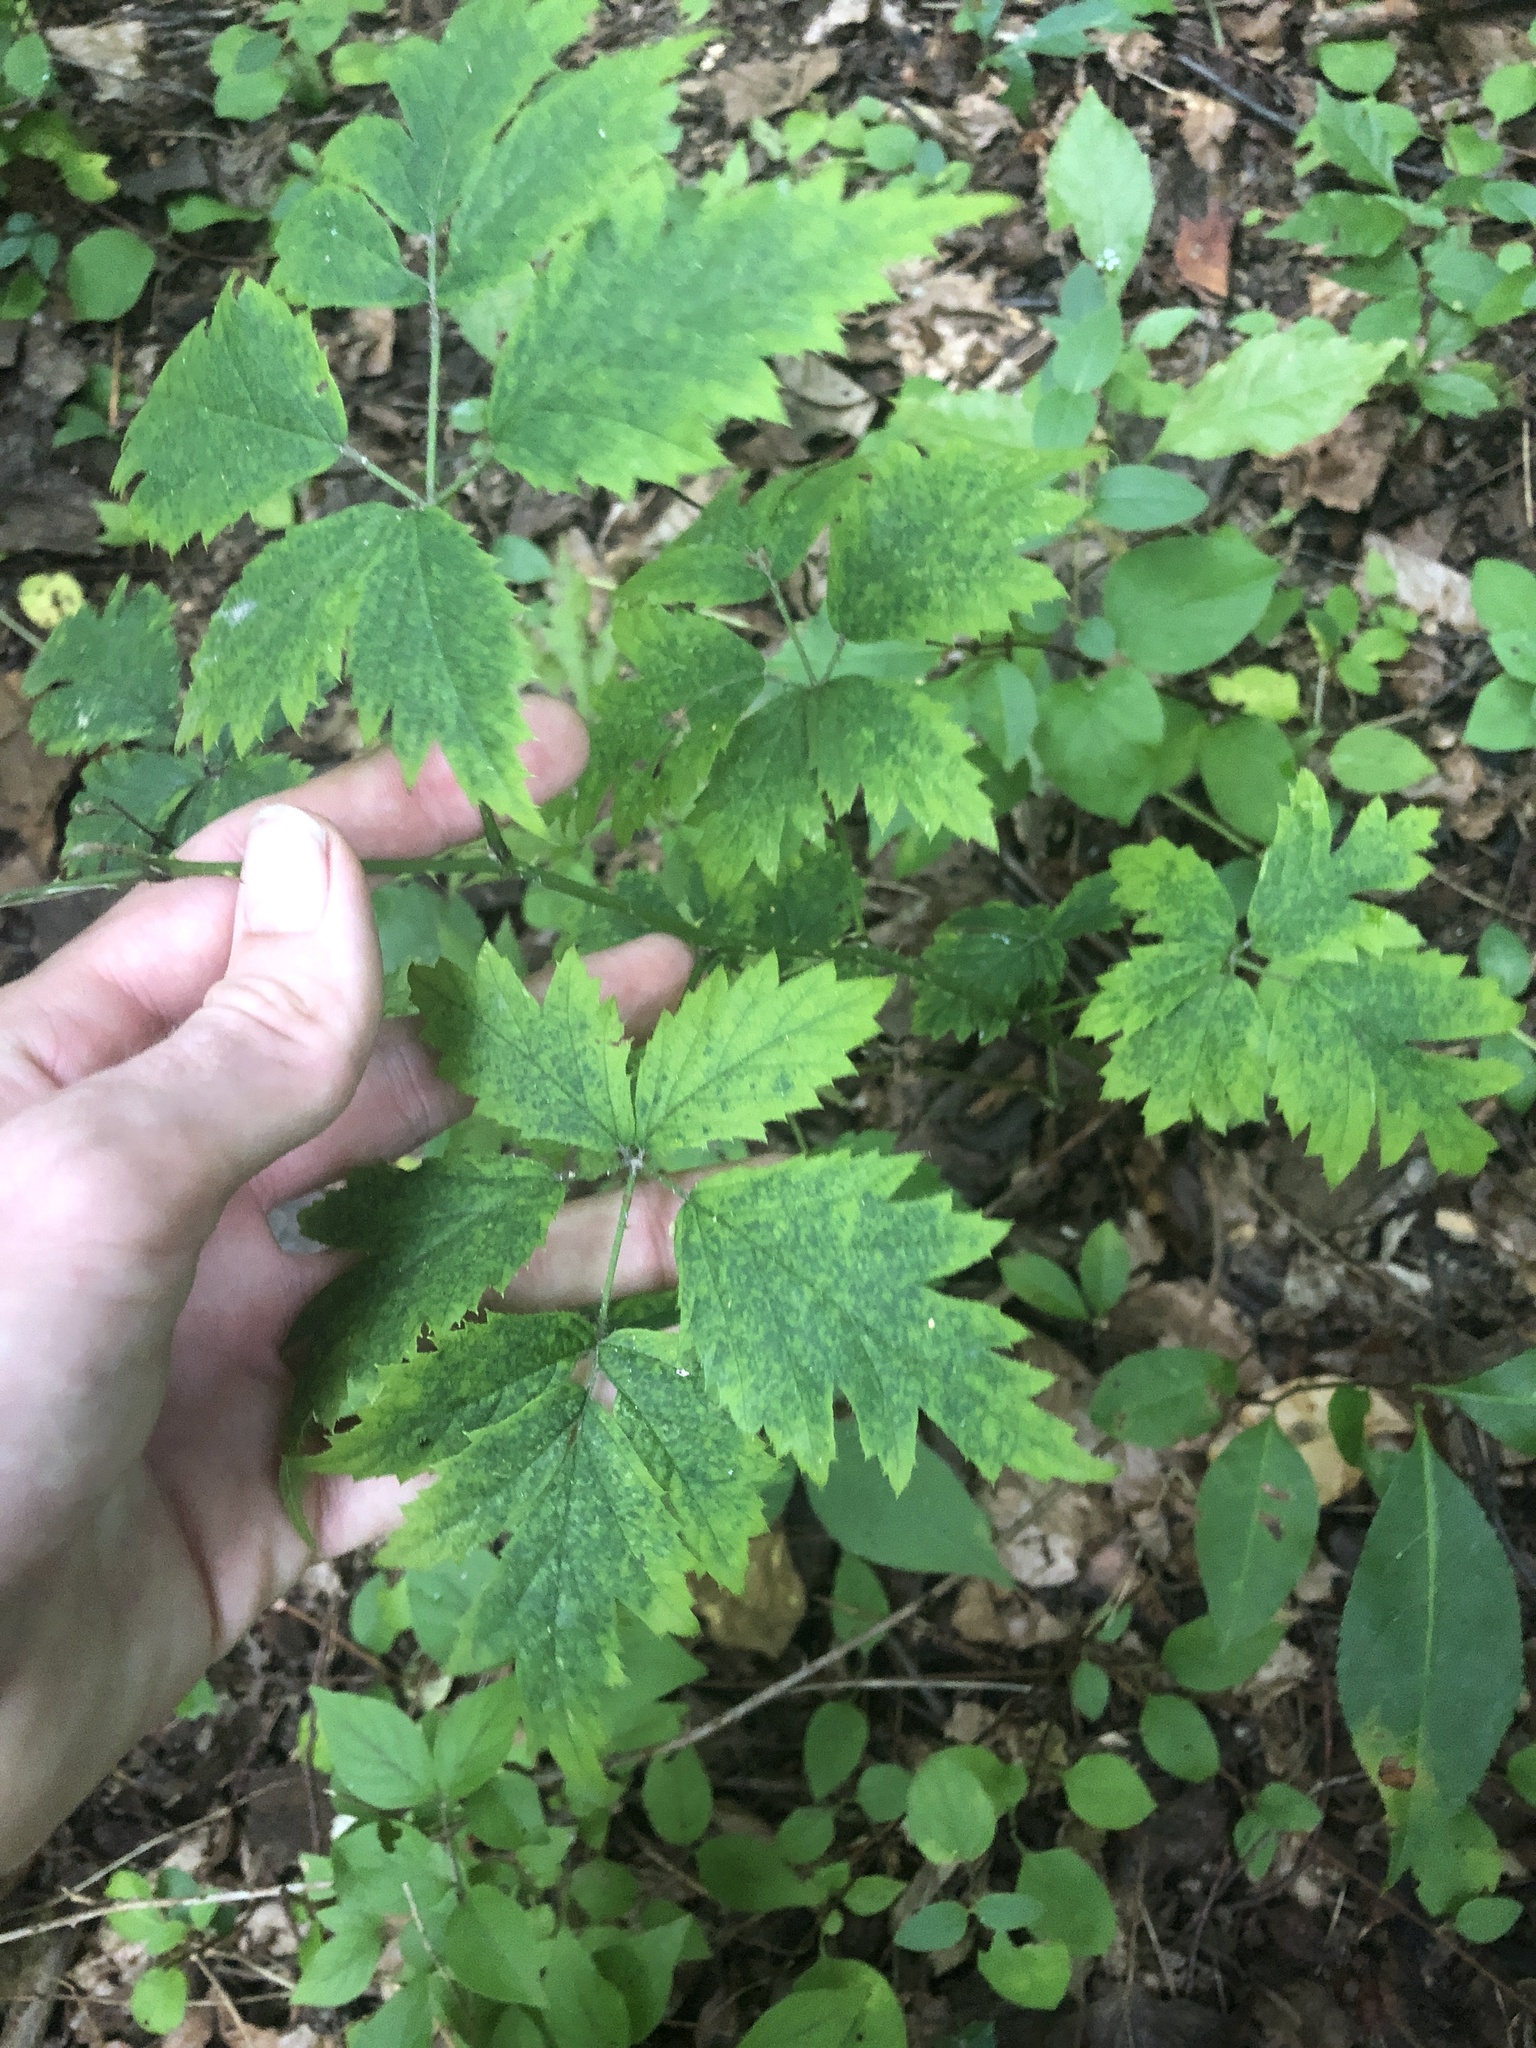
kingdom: Plantae
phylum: Tracheophyta
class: Magnoliopsida
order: Rosales
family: Rosaceae
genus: Rubus
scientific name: Rubus laciniatus
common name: Evergreen blackberry
